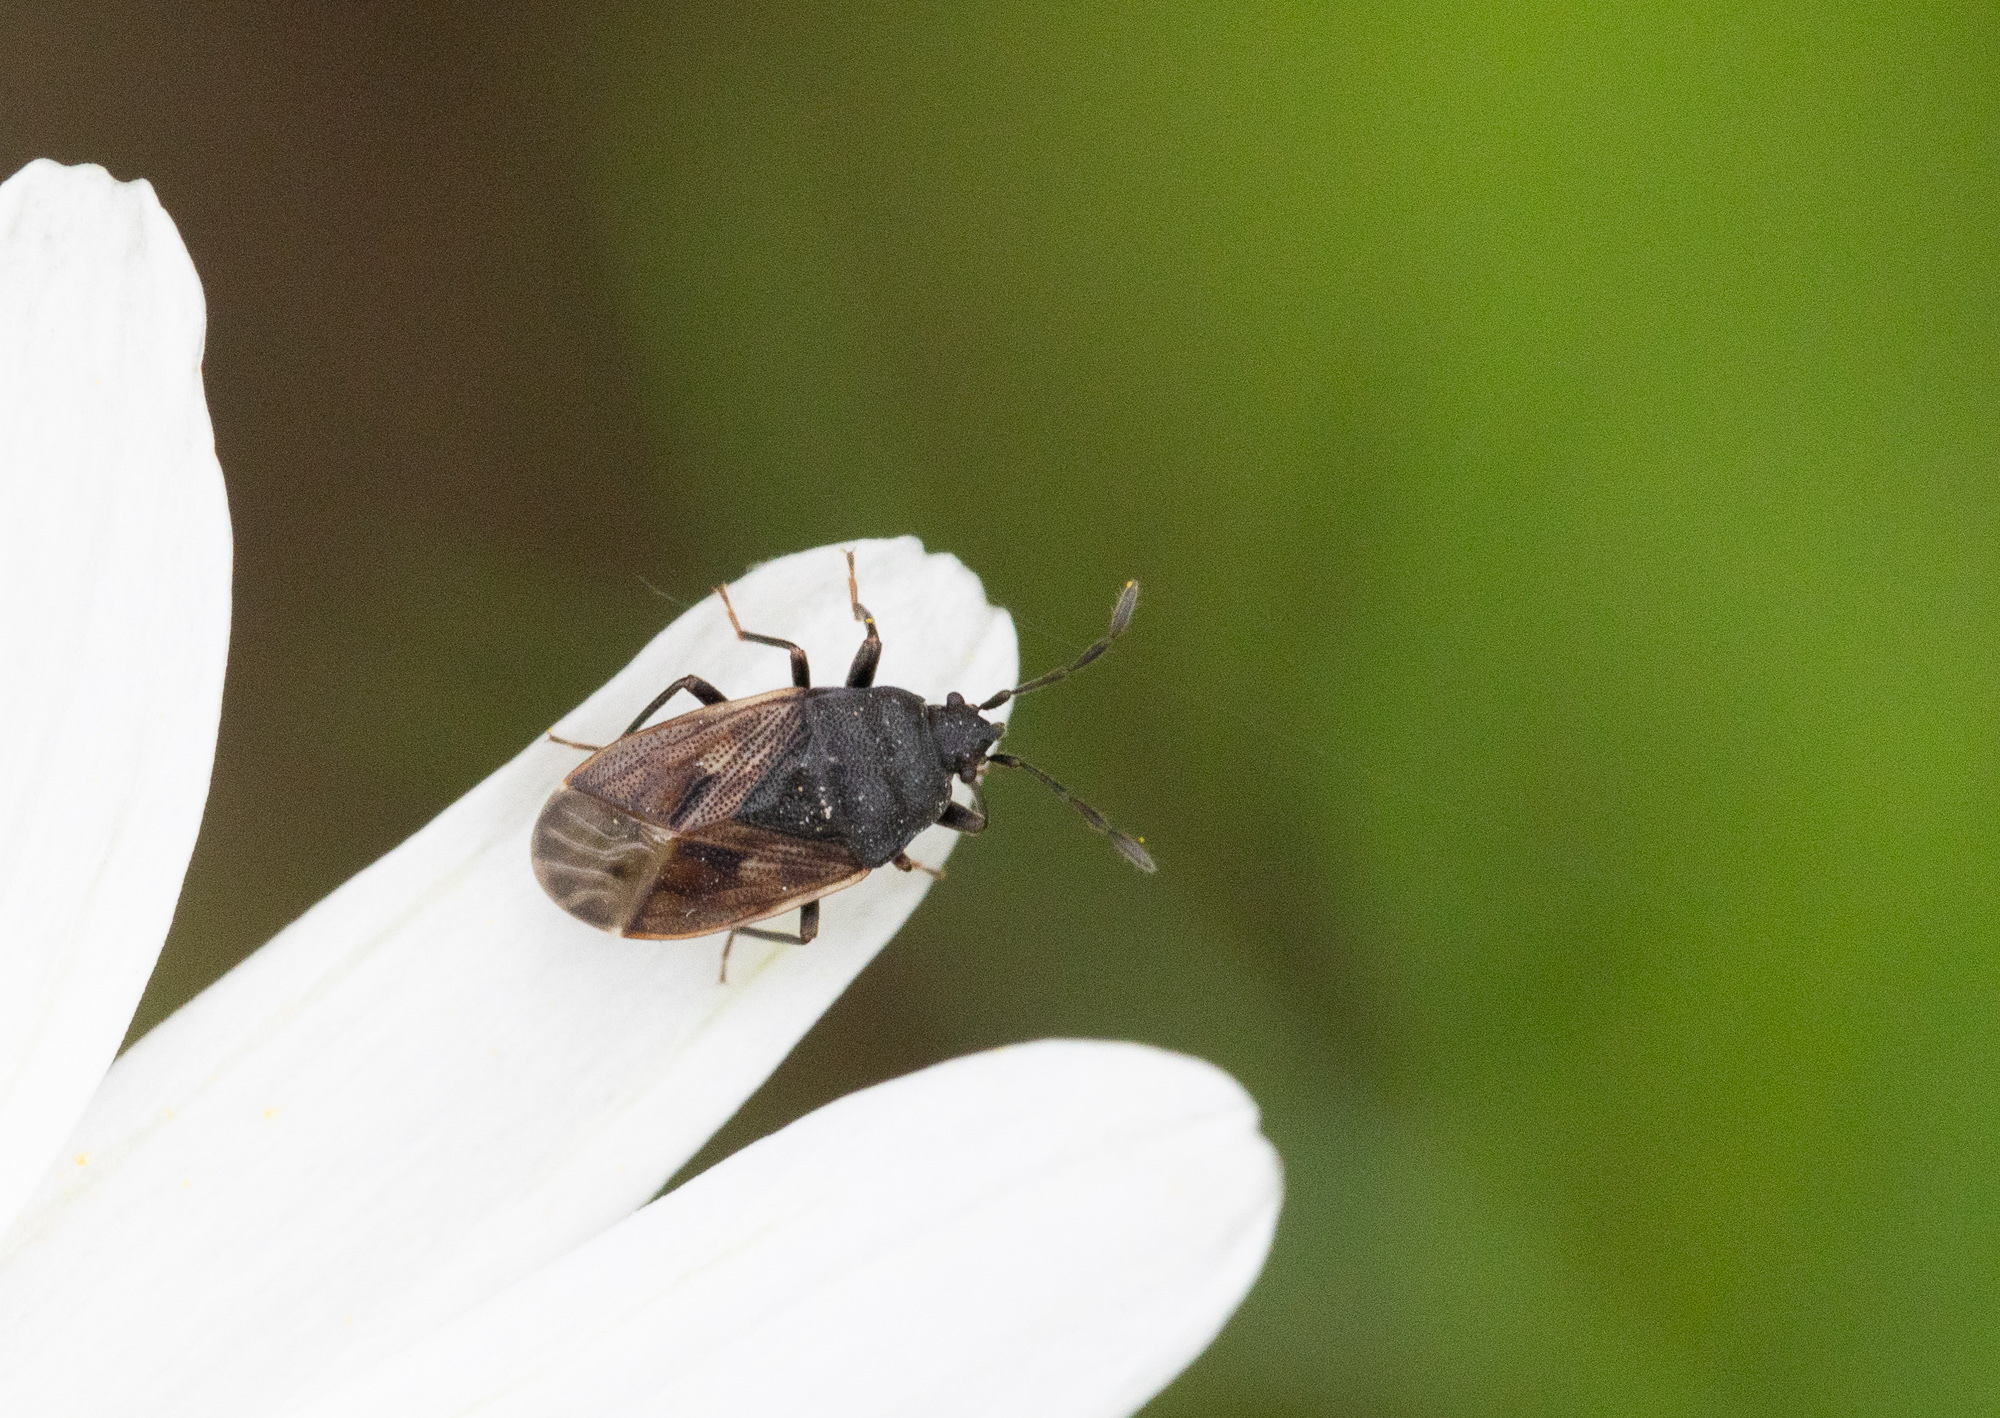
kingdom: Animalia
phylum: Arthropoda
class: Insecta
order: Hemiptera
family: Rhyparochromidae
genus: Drymus
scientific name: Drymus sylvaticus
